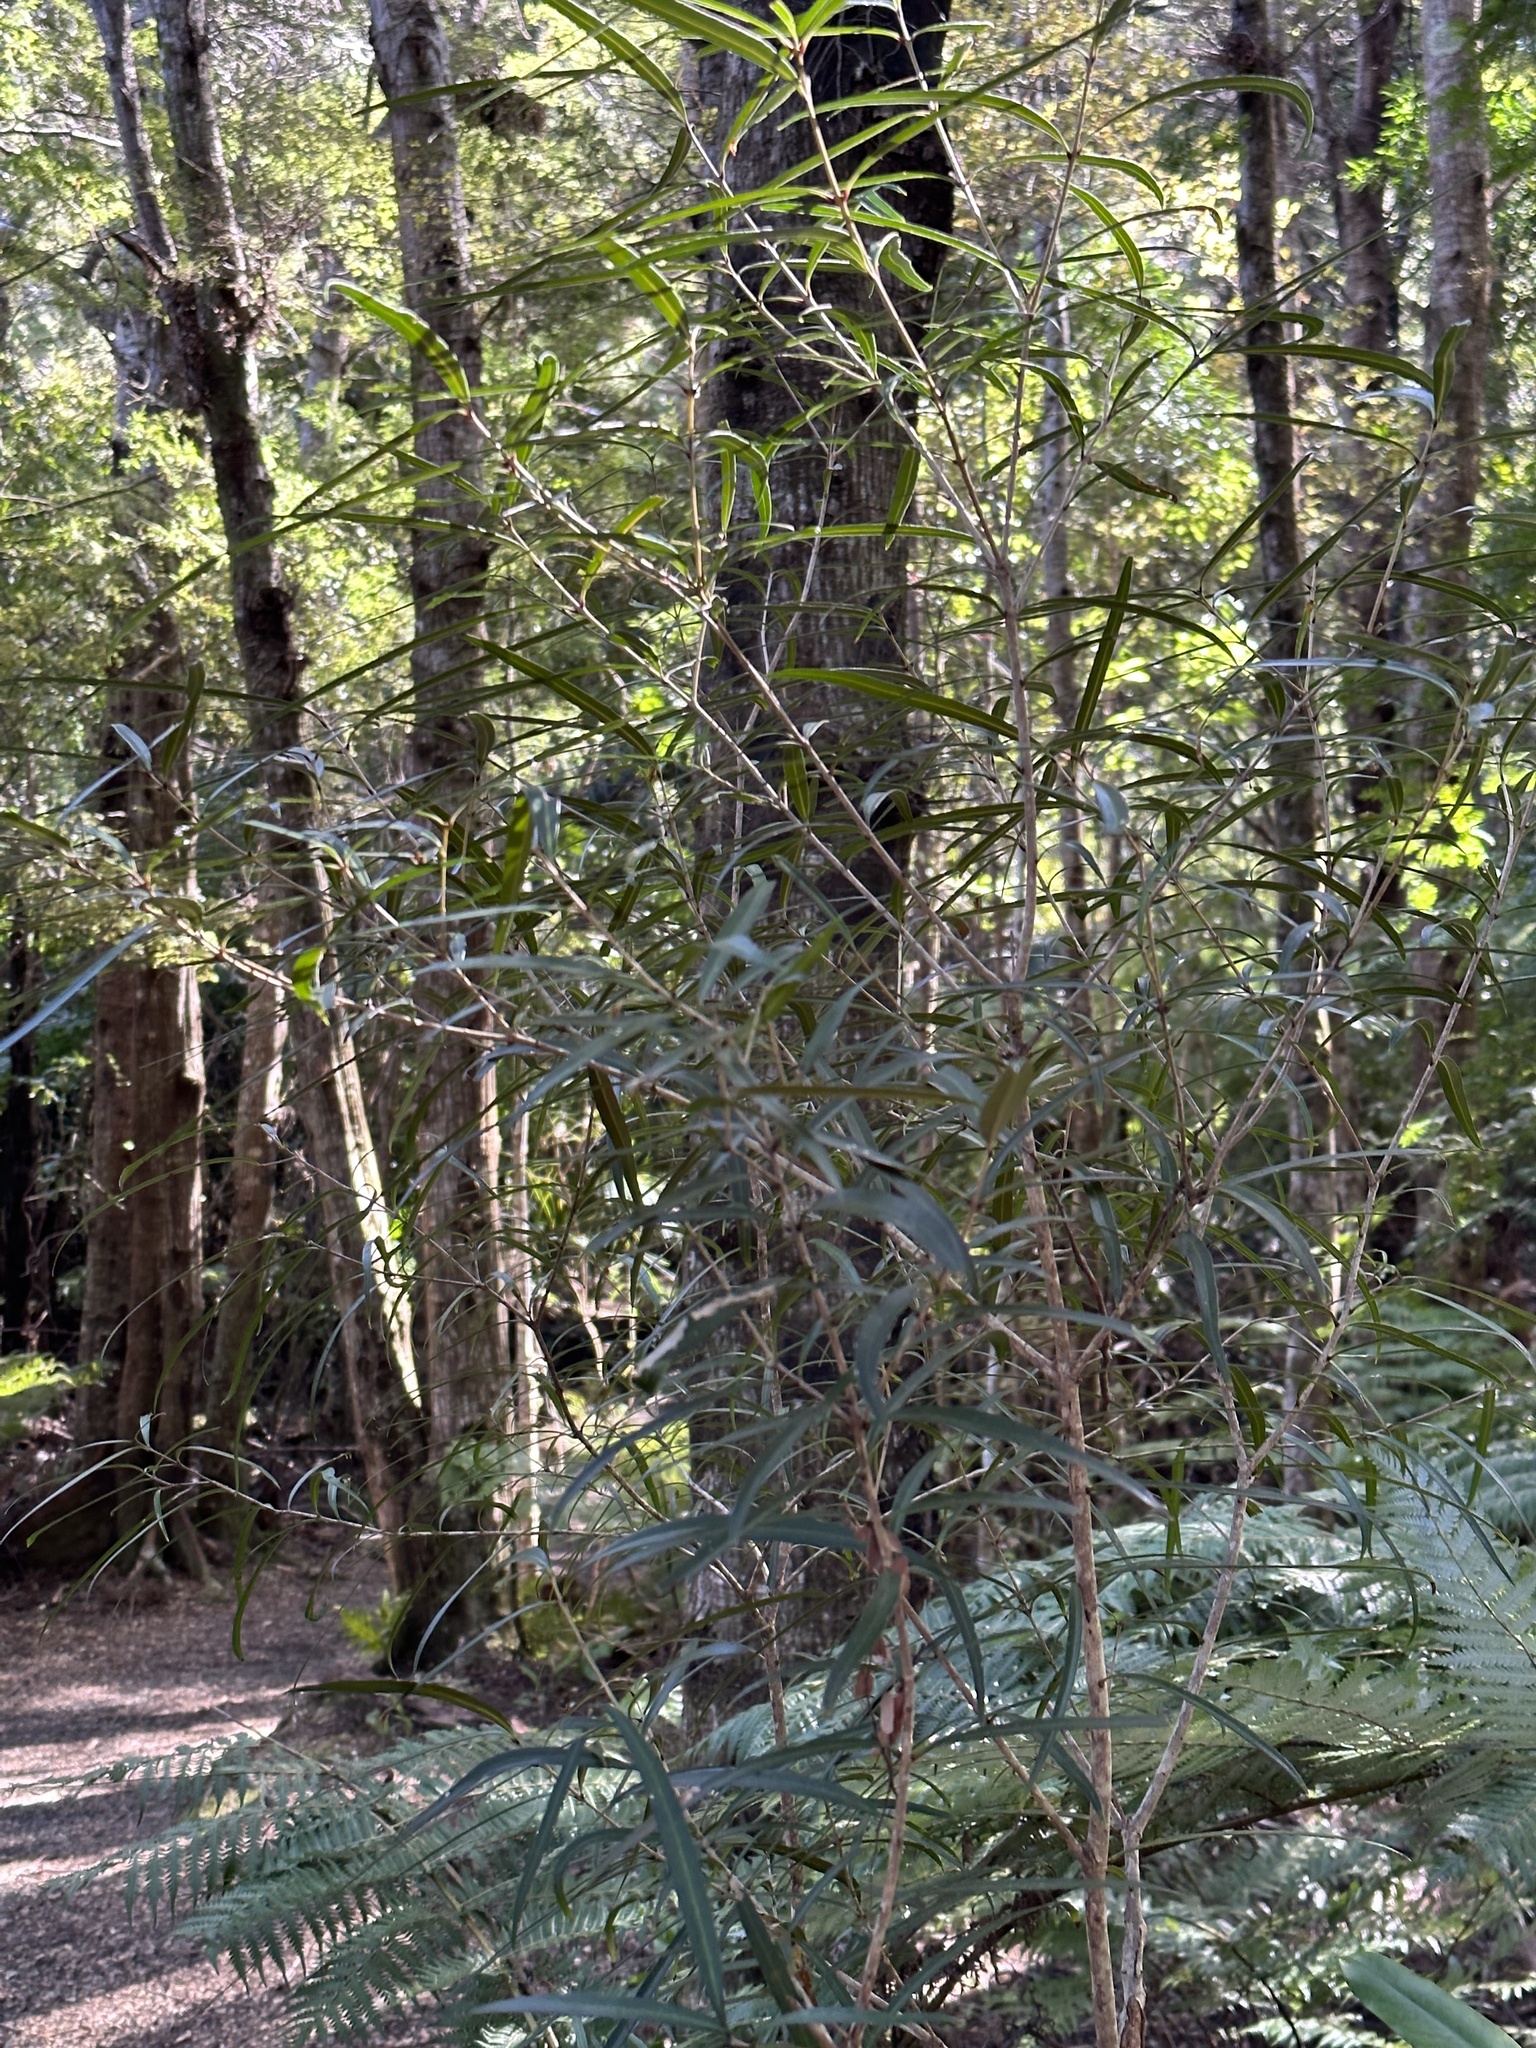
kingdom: Plantae
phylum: Tracheophyta
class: Magnoliopsida
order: Lamiales
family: Oleaceae
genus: Nestegis
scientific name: Nestegis lanceolata
